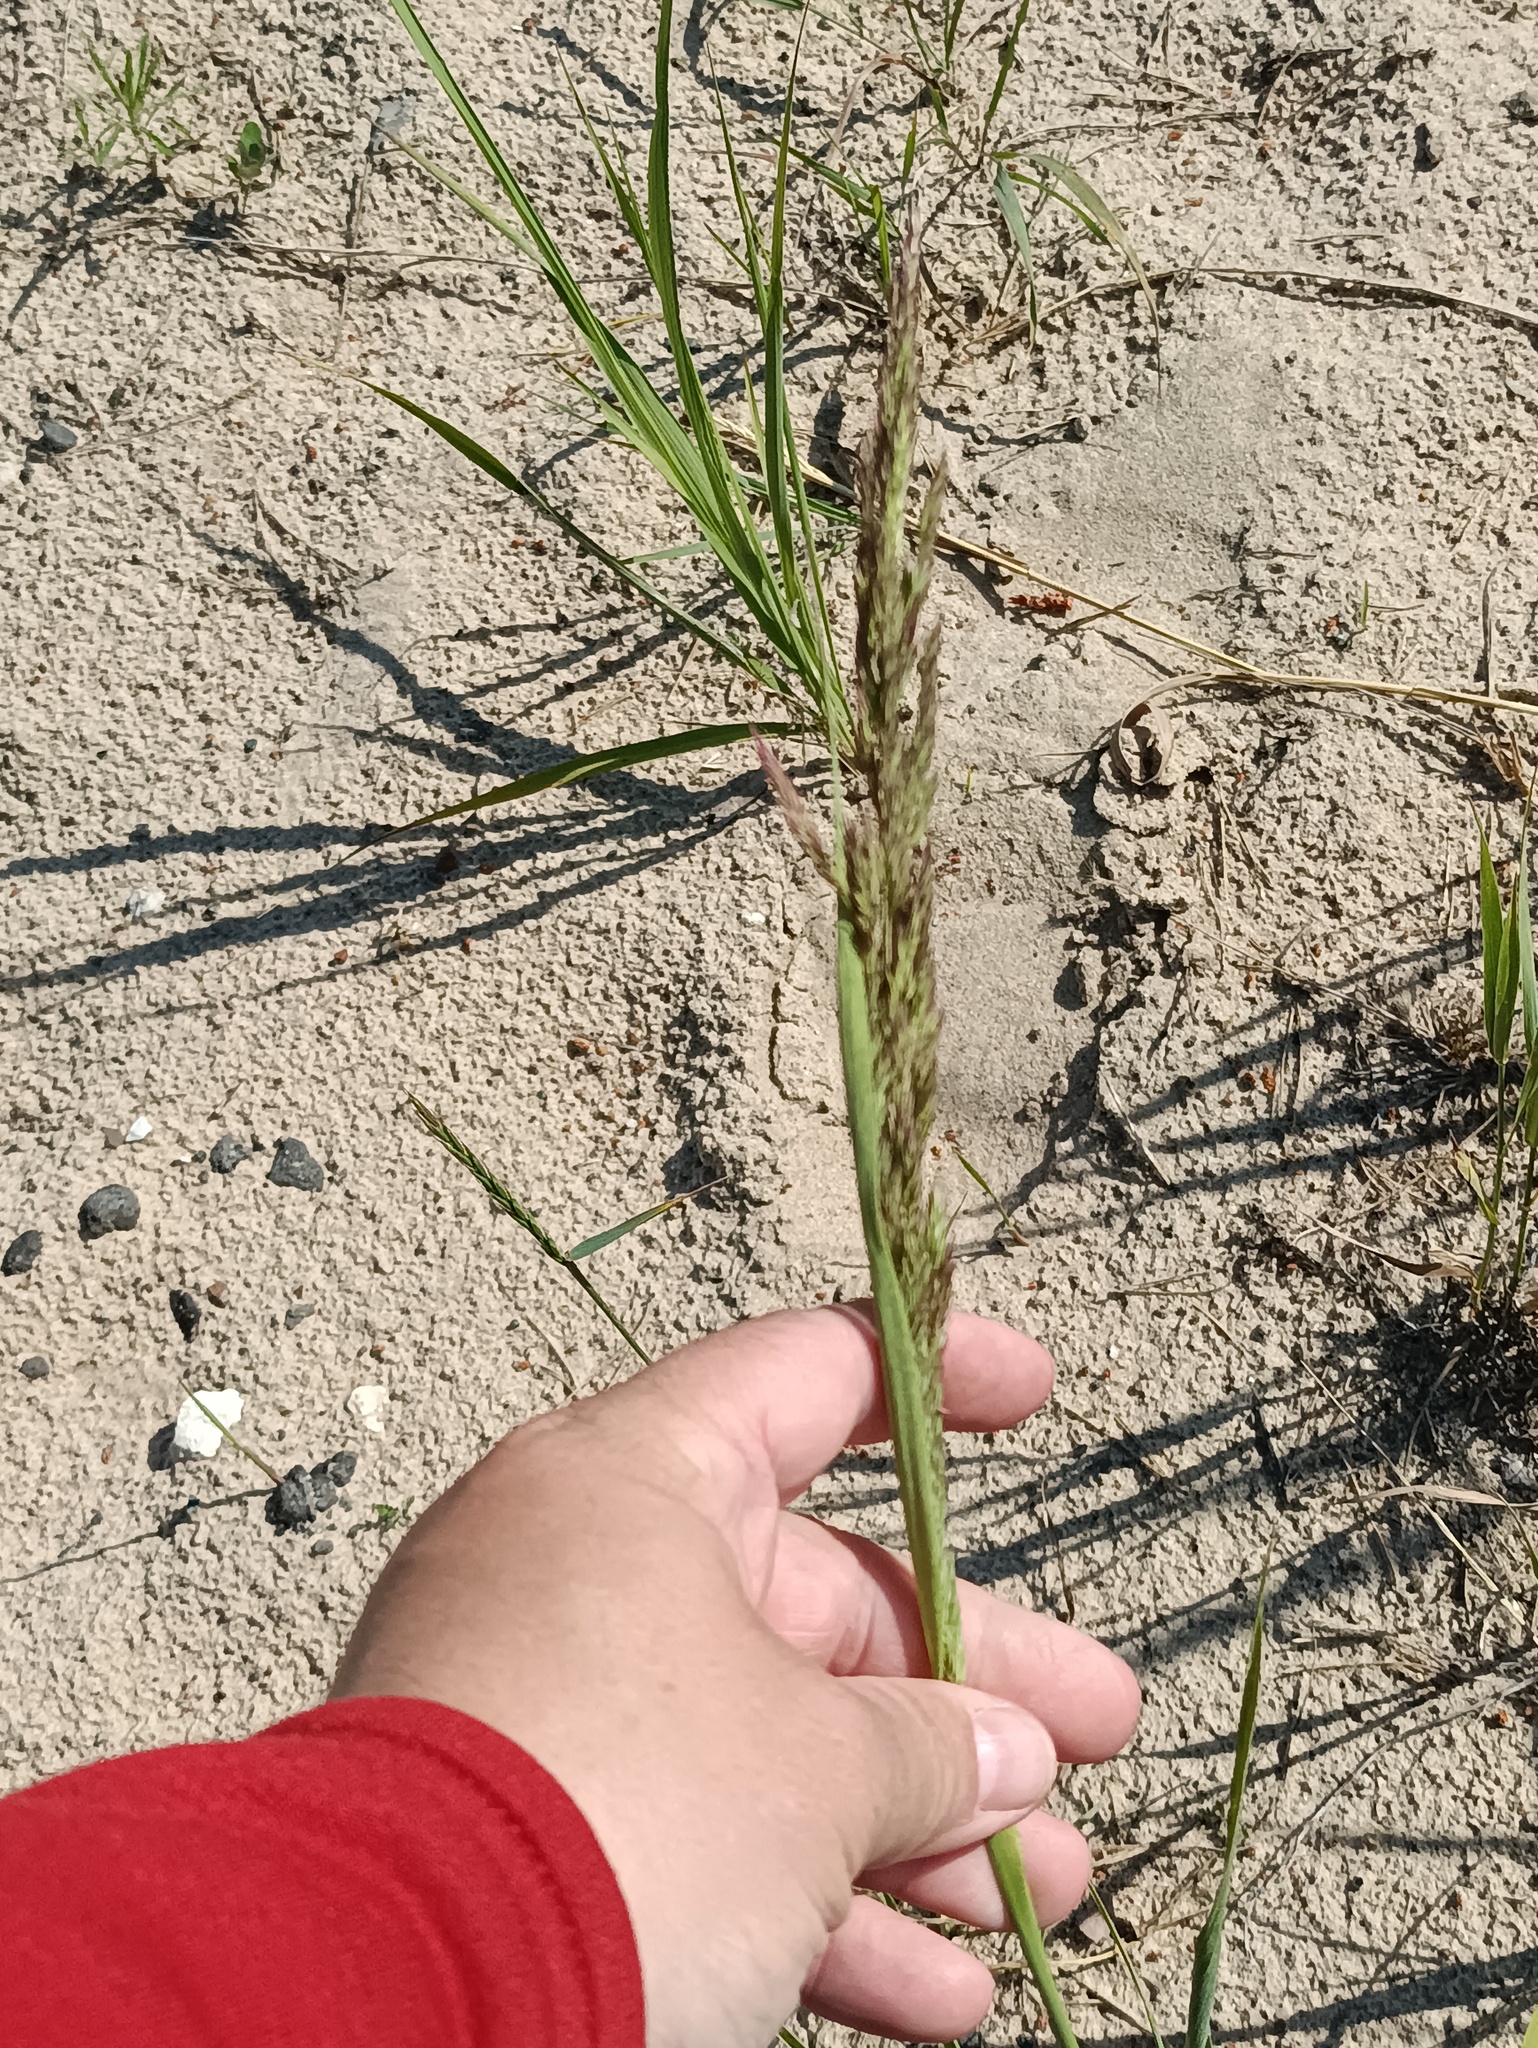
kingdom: Plantae
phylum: Tracheophyta
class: Liliopsida
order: Poales
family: Poaceae
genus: Calamagrostis
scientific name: Calamagrostis epigejos
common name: Wood small-reed
